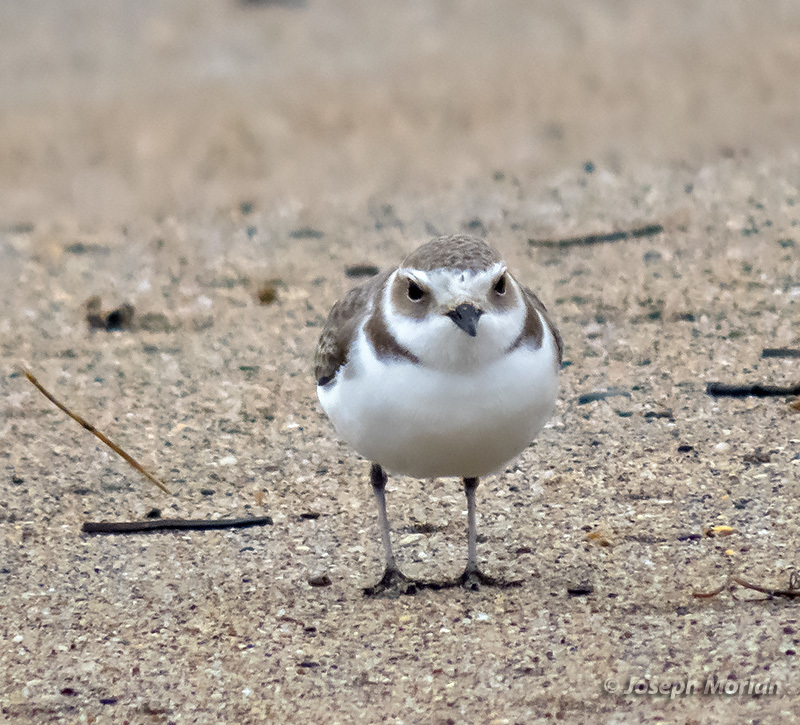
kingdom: Animalia
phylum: Chordata
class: Aves
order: Charadriiformes
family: Charadriidae
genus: Anarhynchus
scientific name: Anarhynchus
